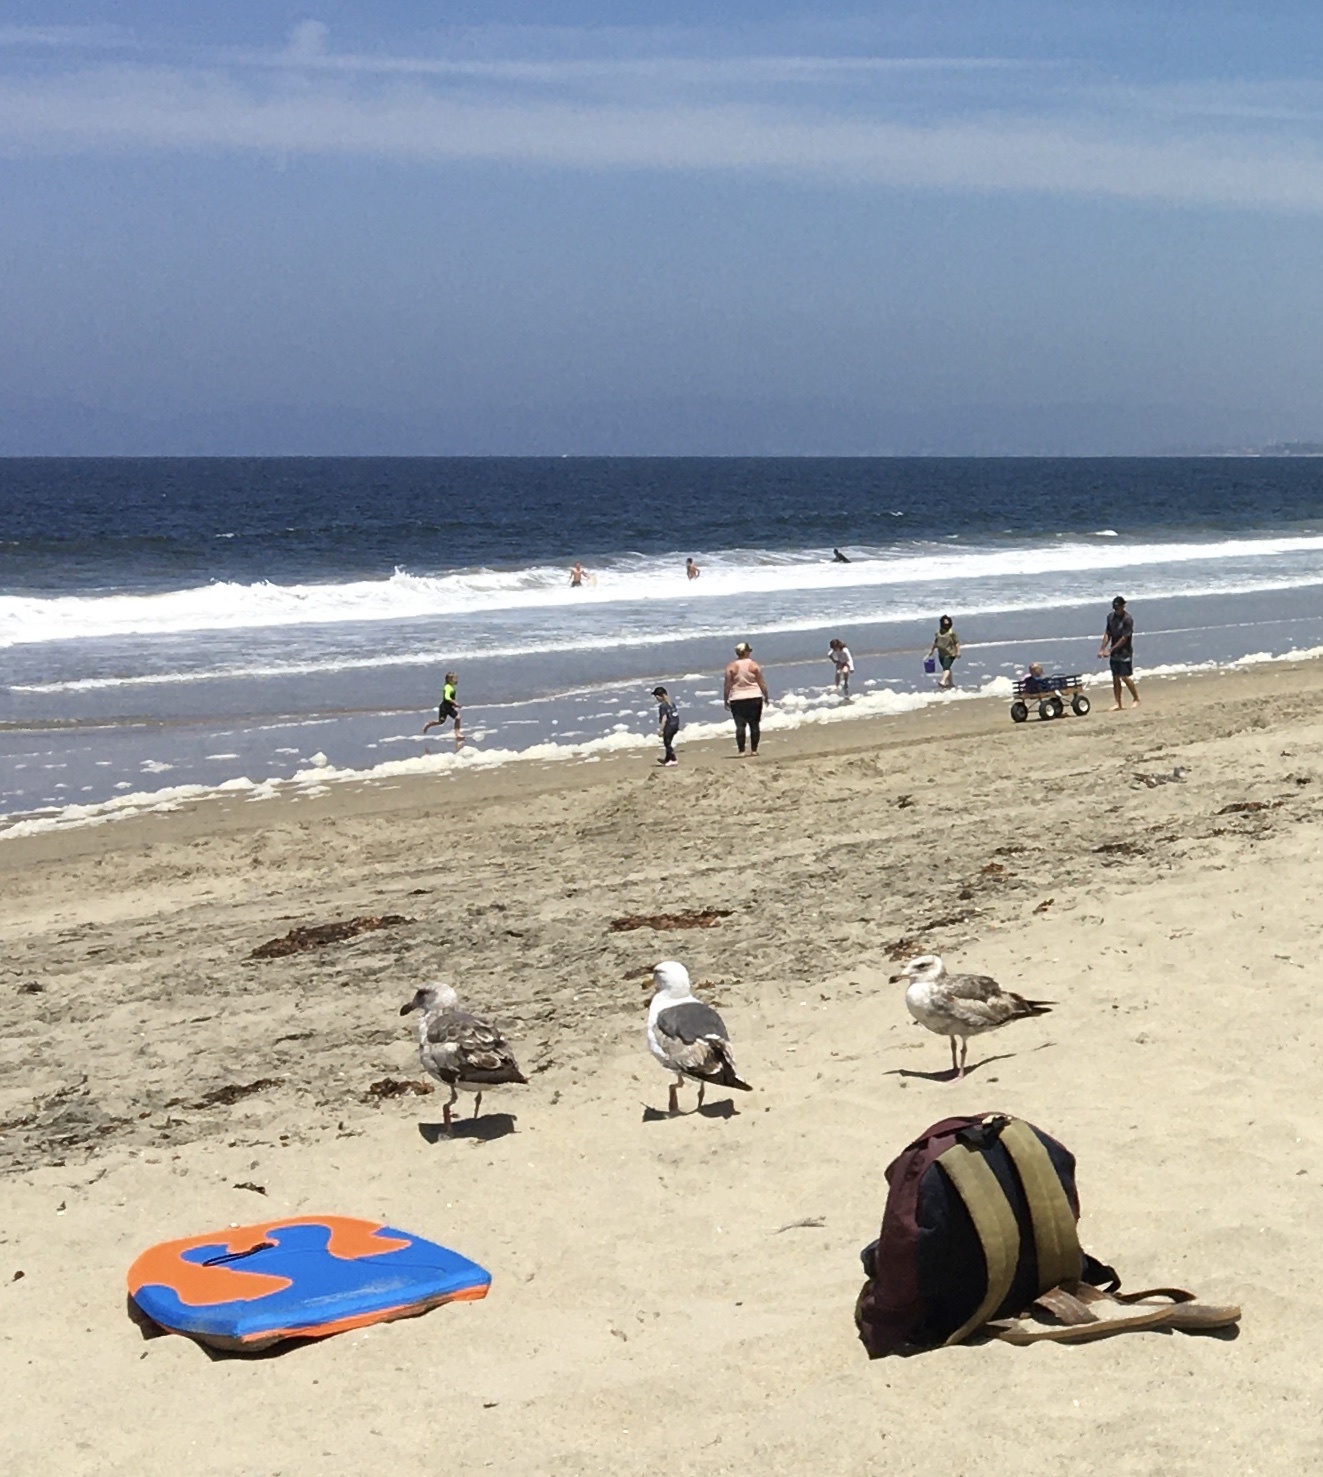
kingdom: Animalia
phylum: Chordata
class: Aves
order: Charadriiformes
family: Laridae
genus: Larus
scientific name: Larus occidentalis
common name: Western gull
